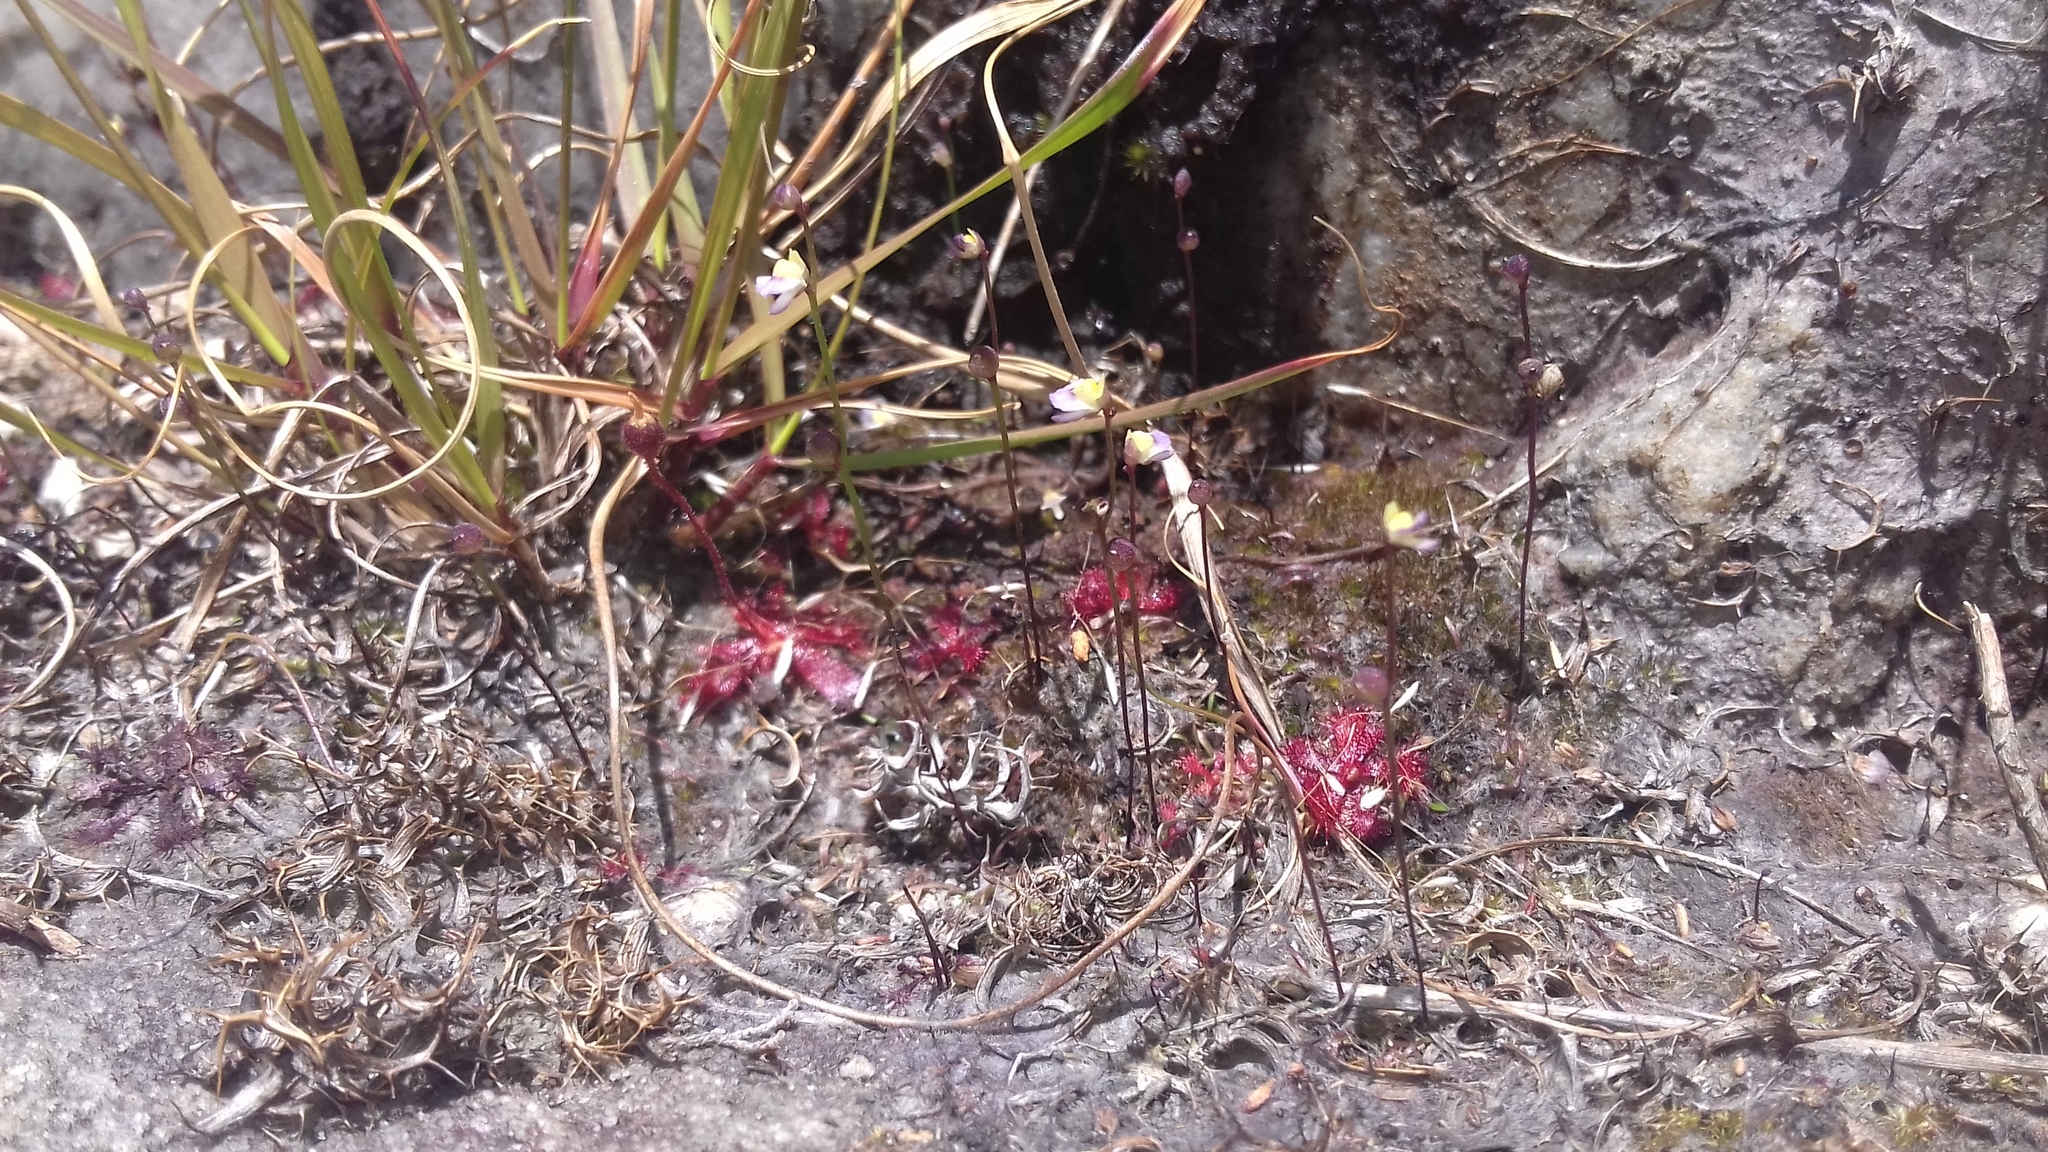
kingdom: Plantae
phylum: Tracheophyta
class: Magnoliopsida
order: Lamiales
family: Lentibulariaceae
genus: Utricularia
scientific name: Utricularia bisquamata
